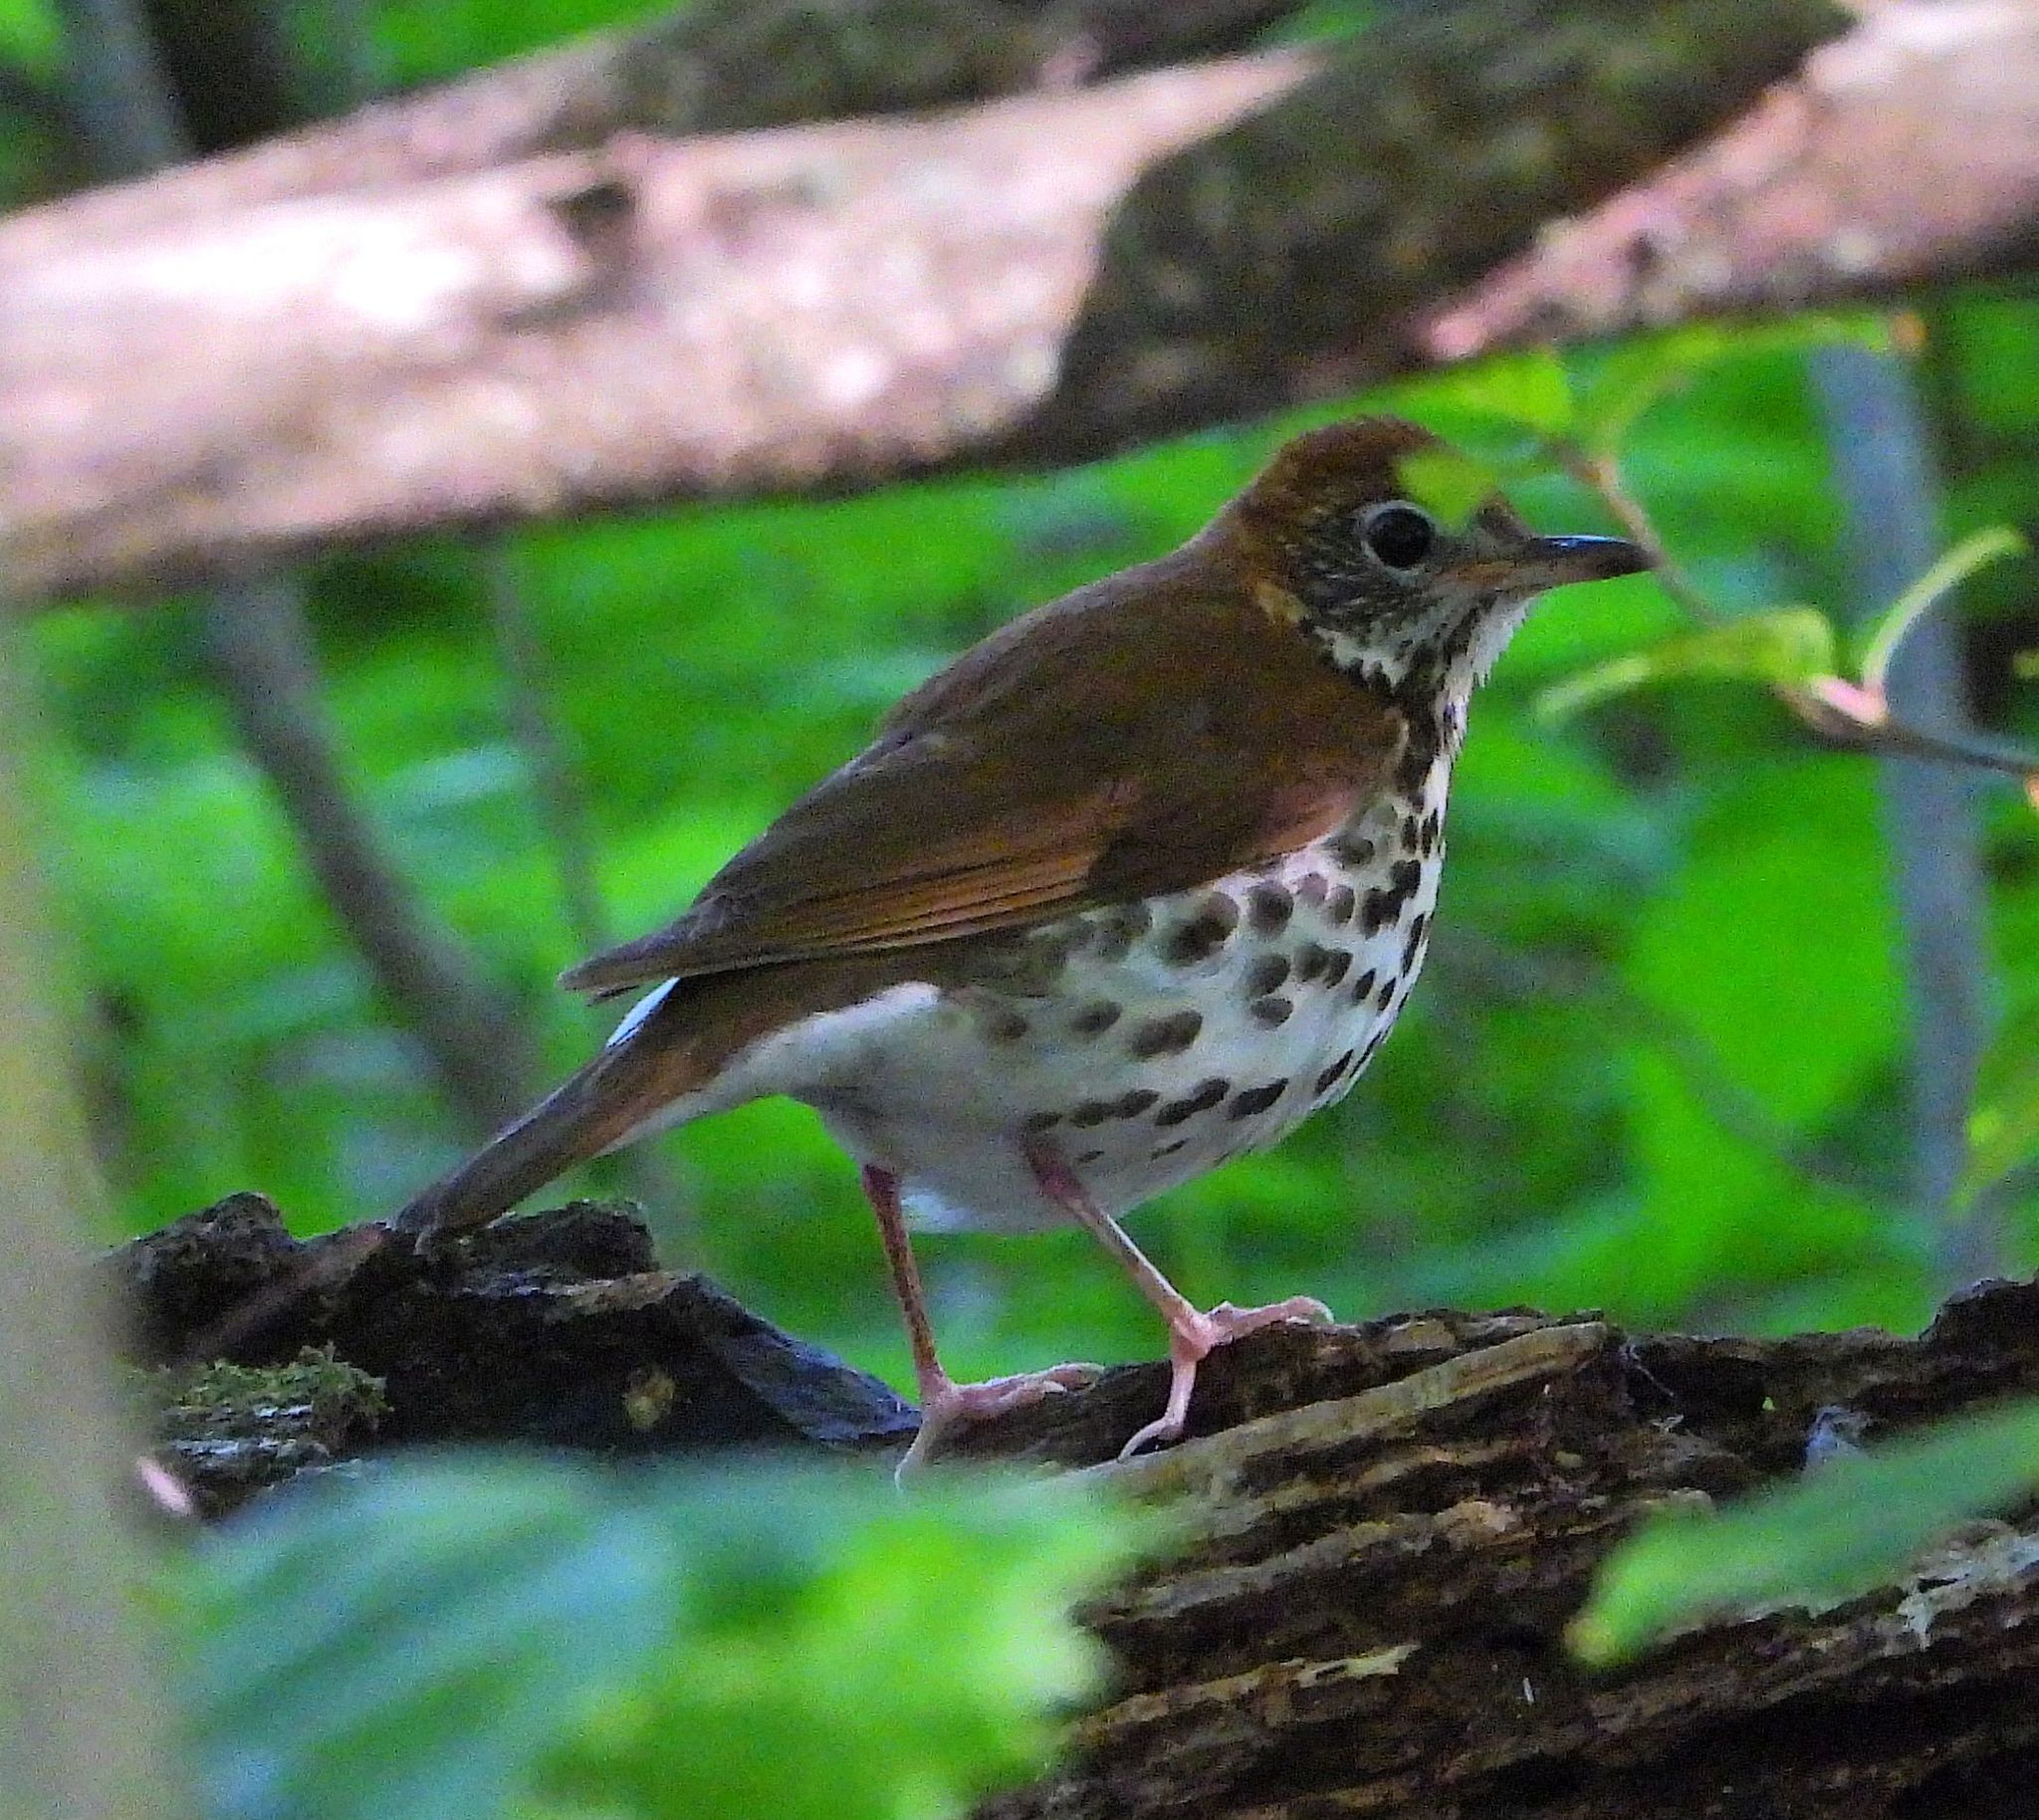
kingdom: Animalia
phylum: Chordata
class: Aves
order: Passeriformes
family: Turdidae
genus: Hylocichla
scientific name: Hylocichla mustelina
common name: Wood thrush
